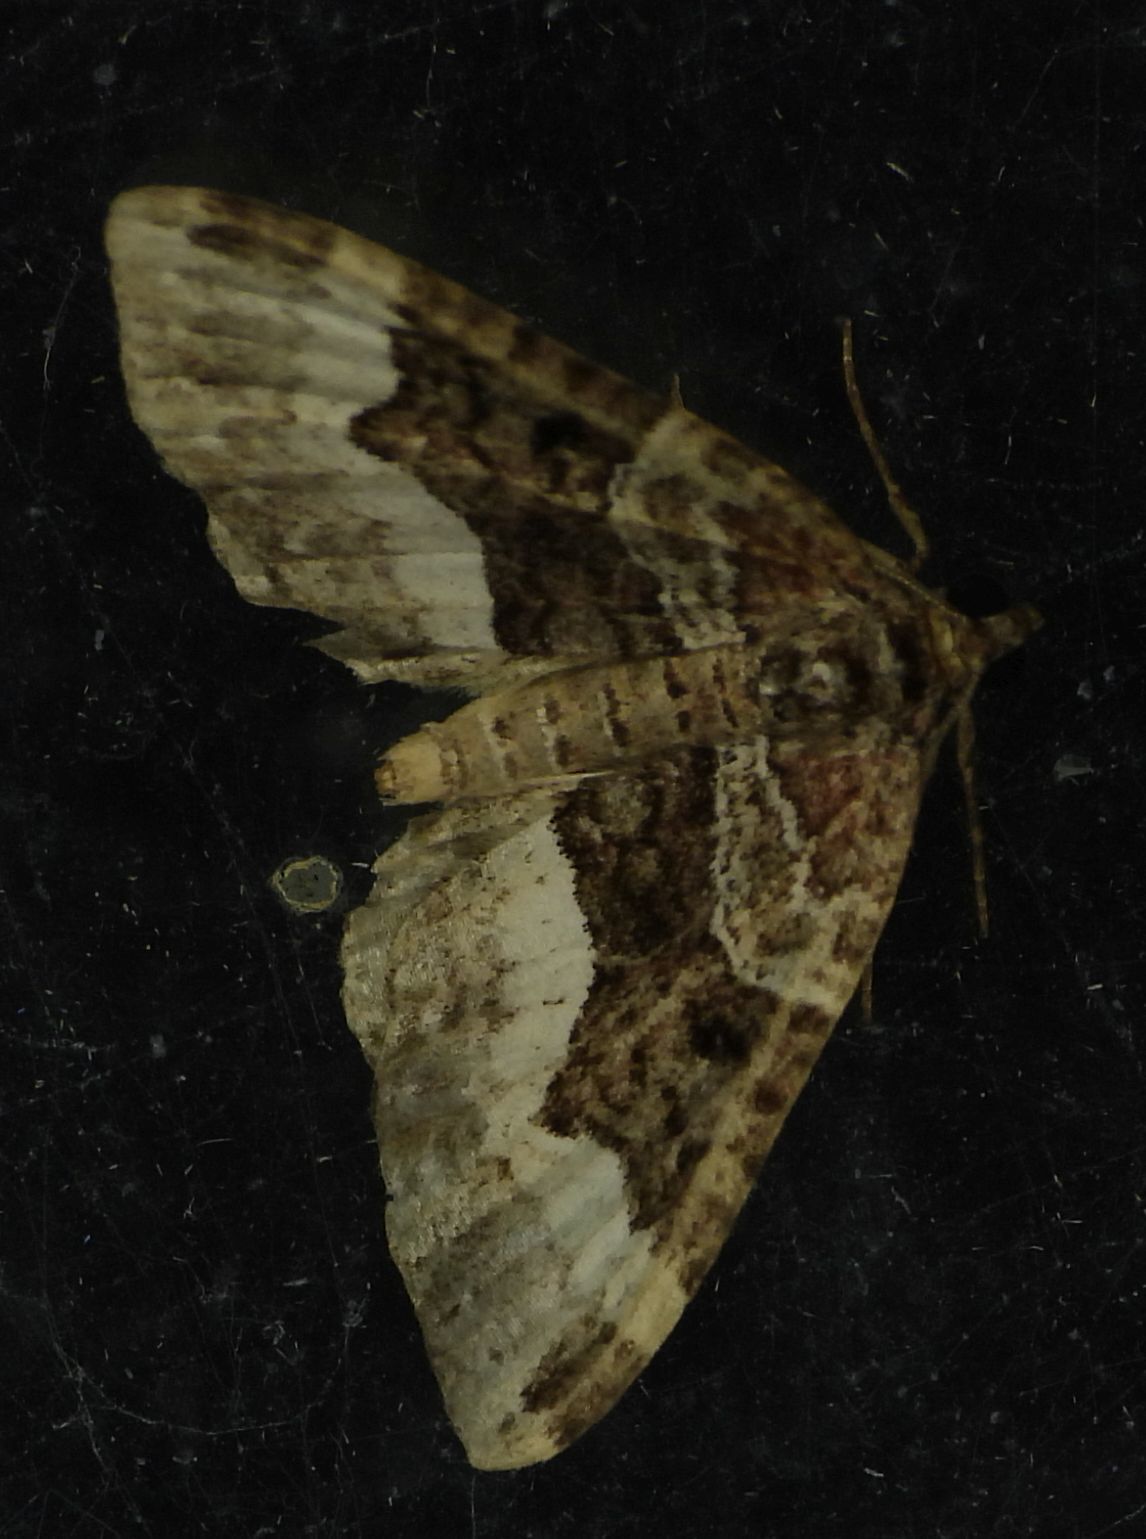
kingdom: Animalia
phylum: Arthropoda
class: Insecta
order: Lepidoptera
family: Geometridae
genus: Euphyia
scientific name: Euphyia intermediata
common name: Sharp-angled carpet
